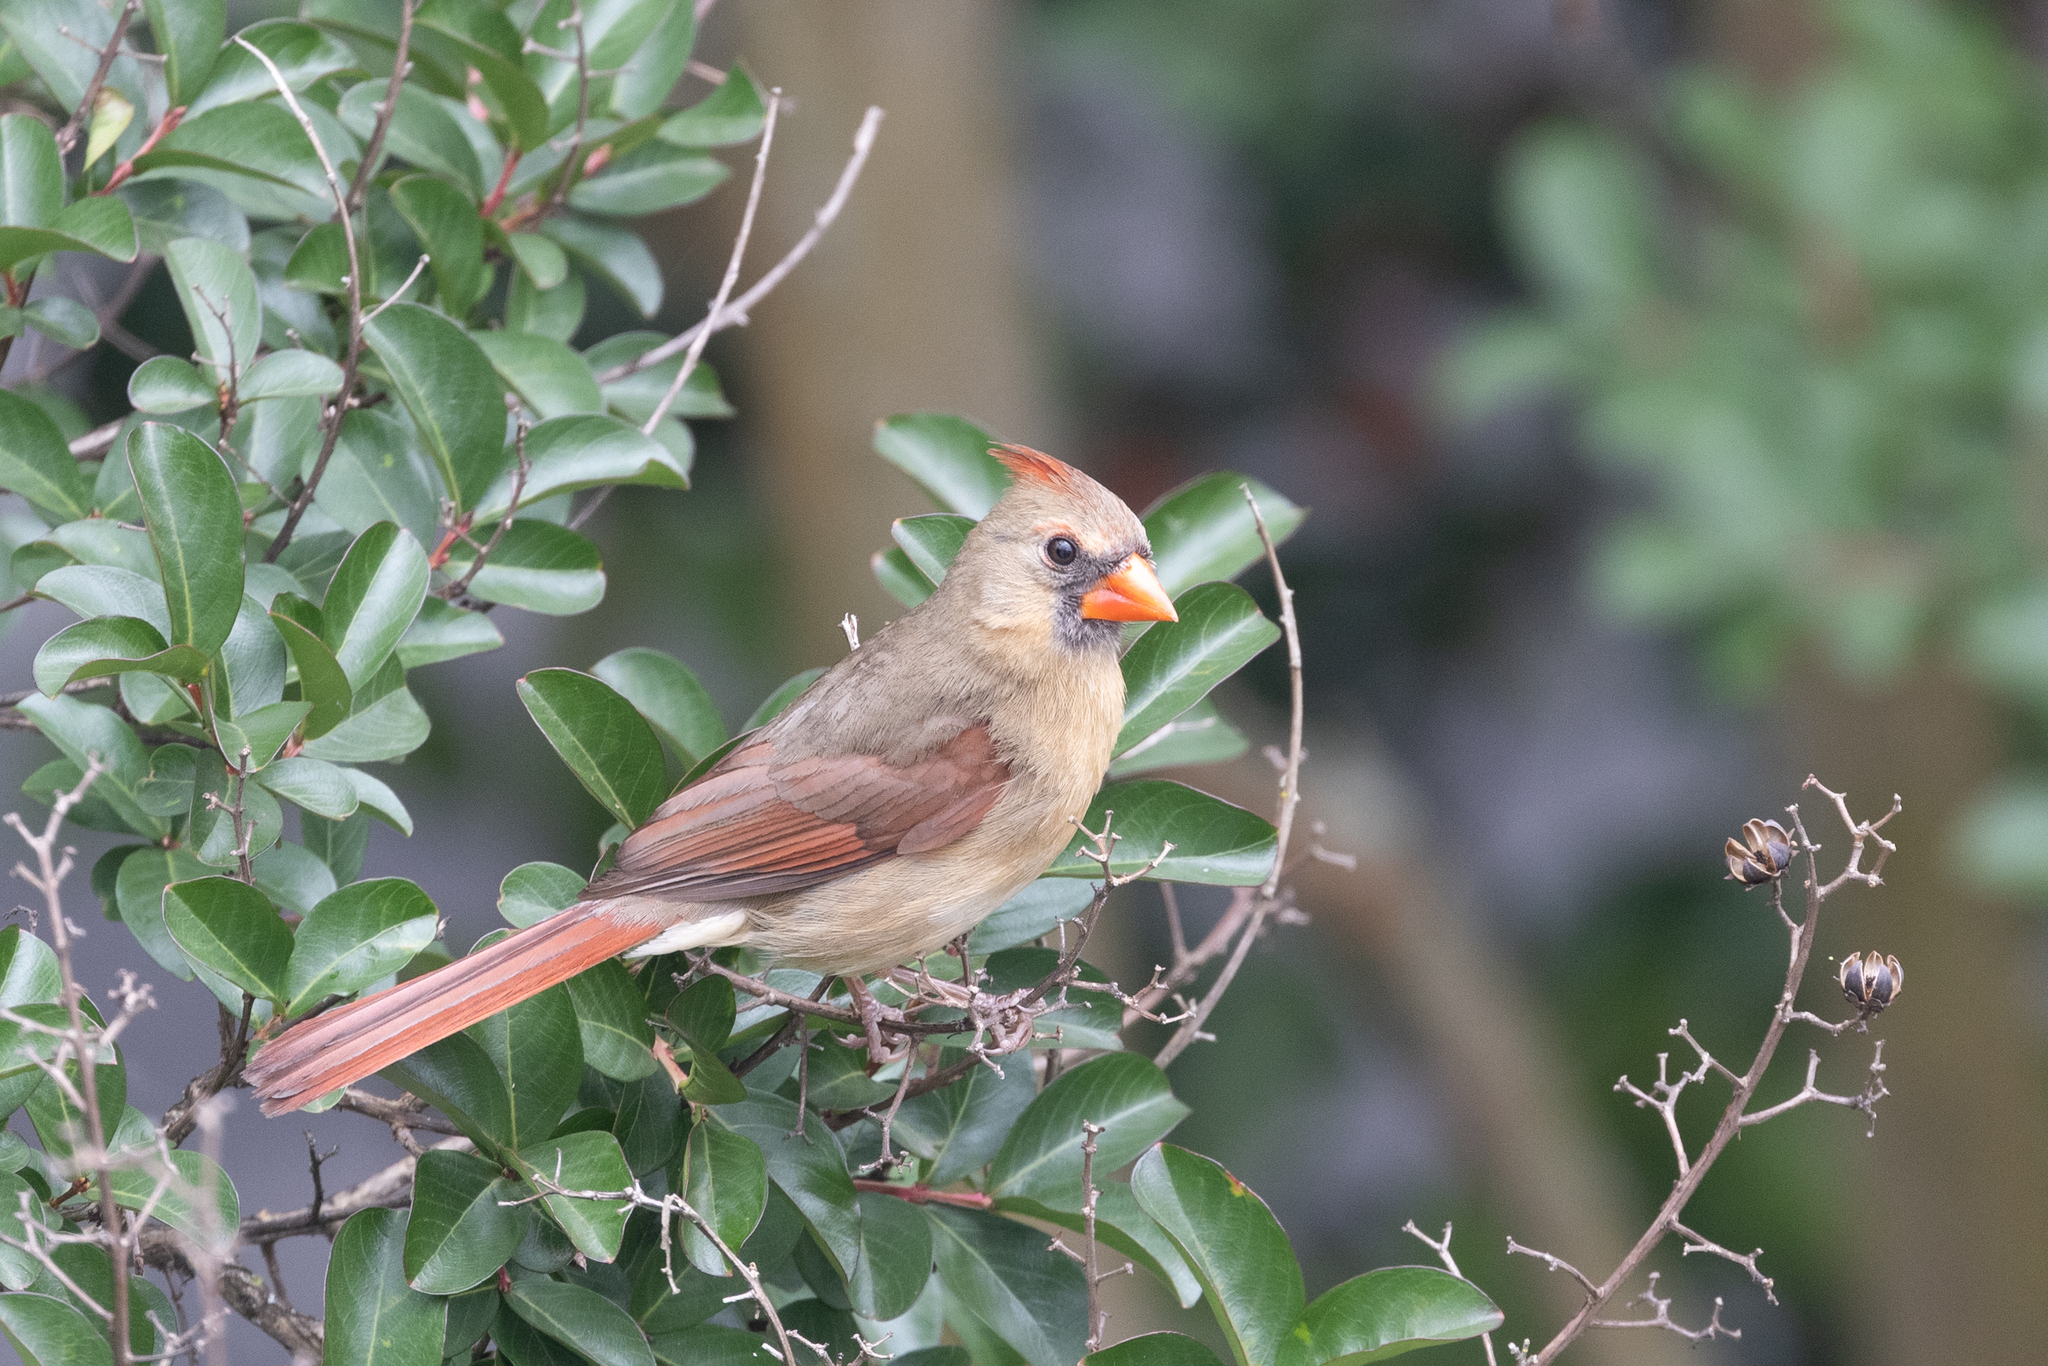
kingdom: Animalia
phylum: Chordata
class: Aves
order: Passeriformes
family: Cardinalidae
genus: Cardinalis
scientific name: Cardinalis cardinalis
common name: Northern cardinal
